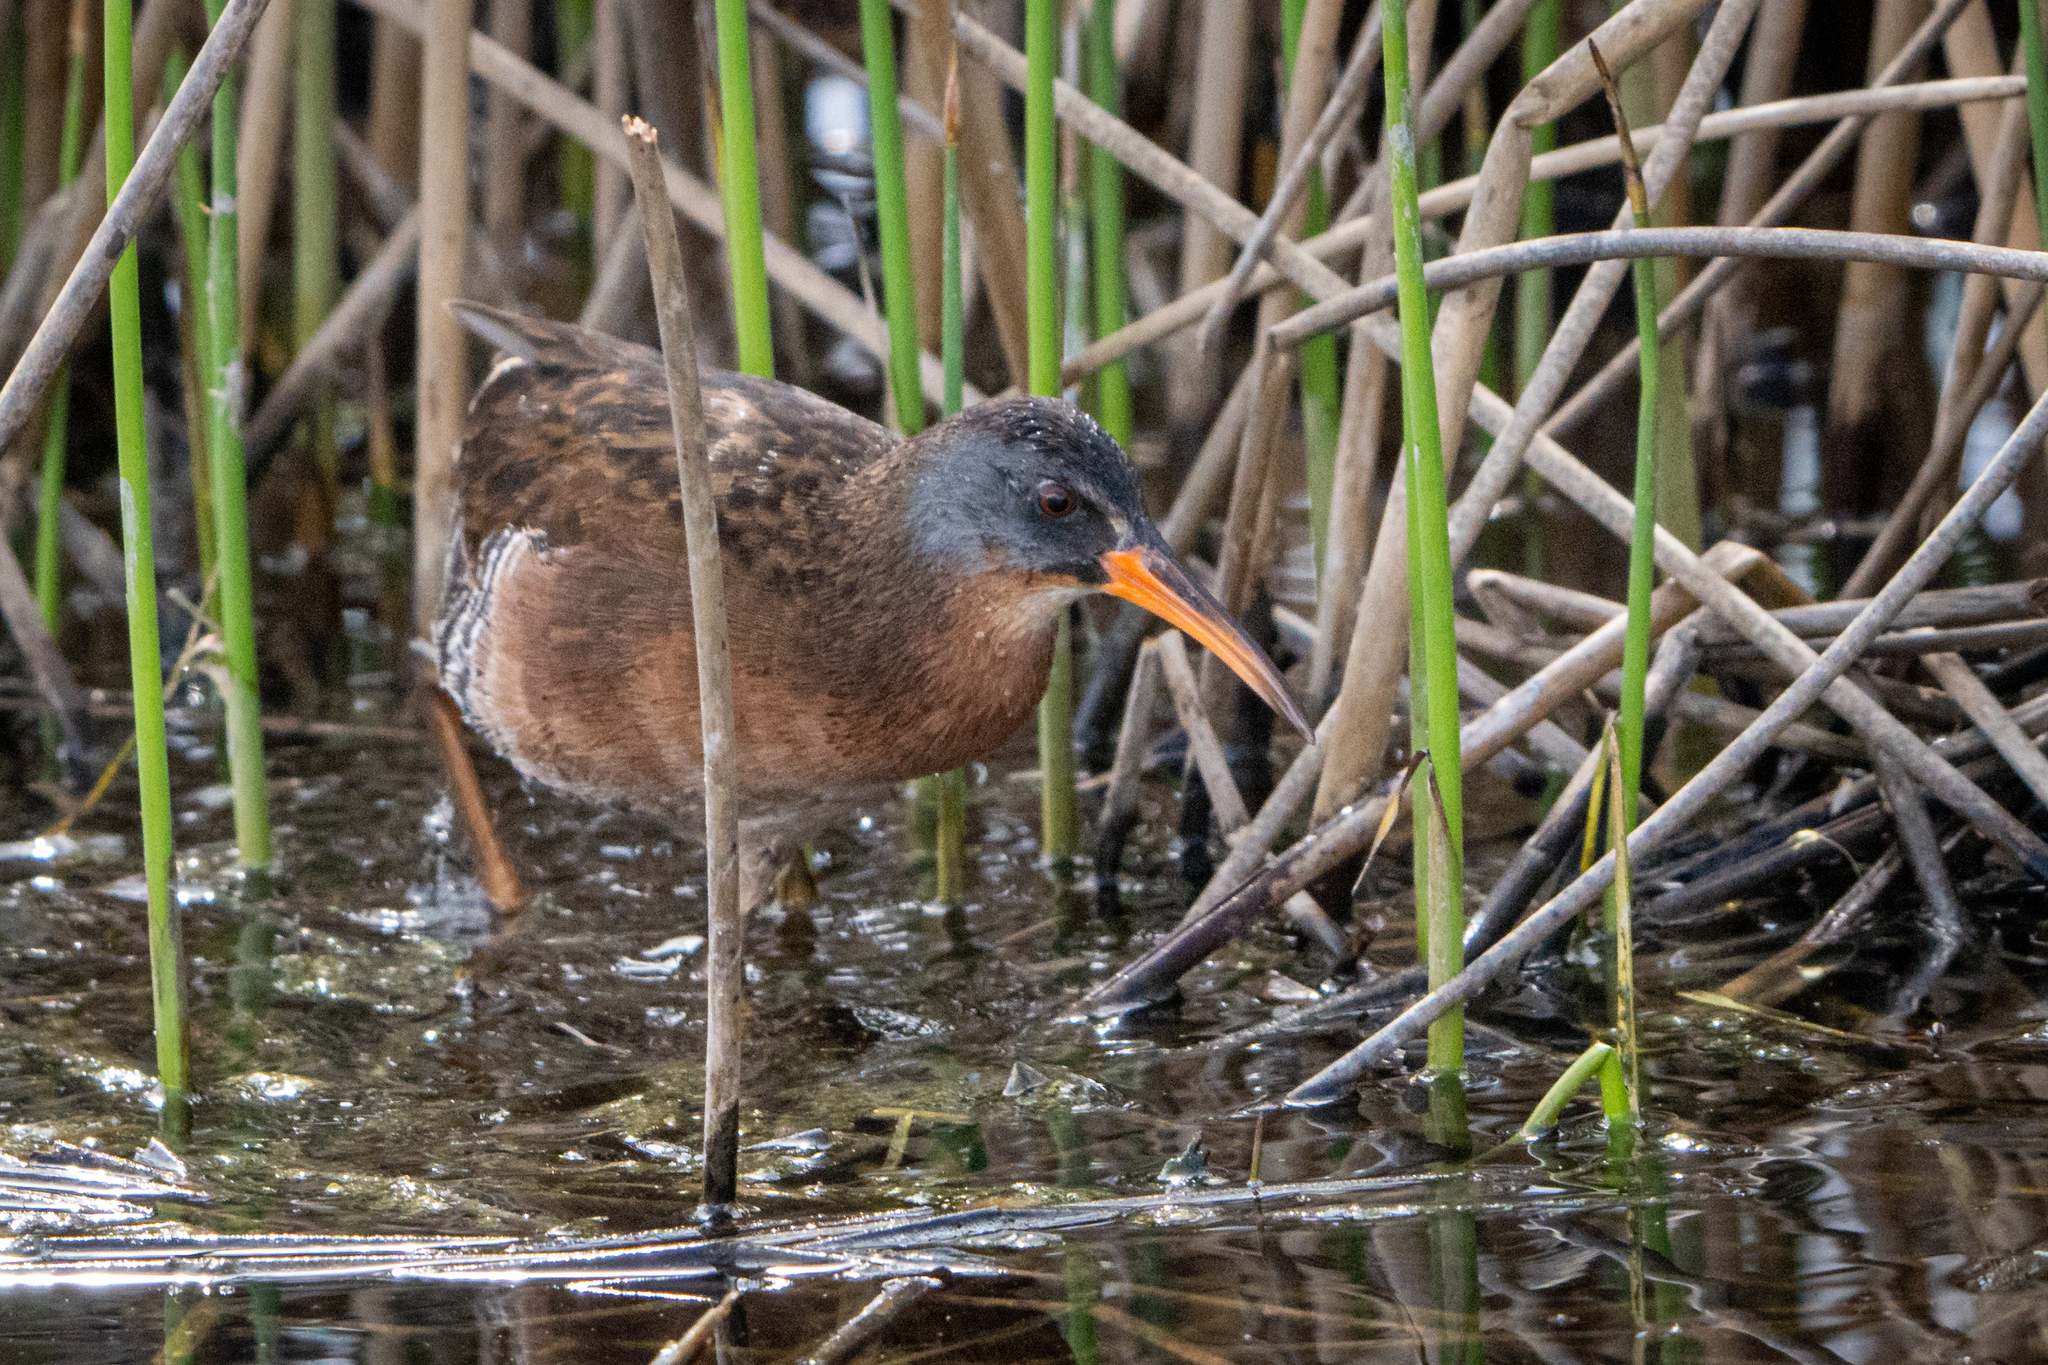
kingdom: Animalia
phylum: Chordata
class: Aves
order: Gruiformes
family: Rallidae
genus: Rallus
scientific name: Rallus limicola
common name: Virginia rail
